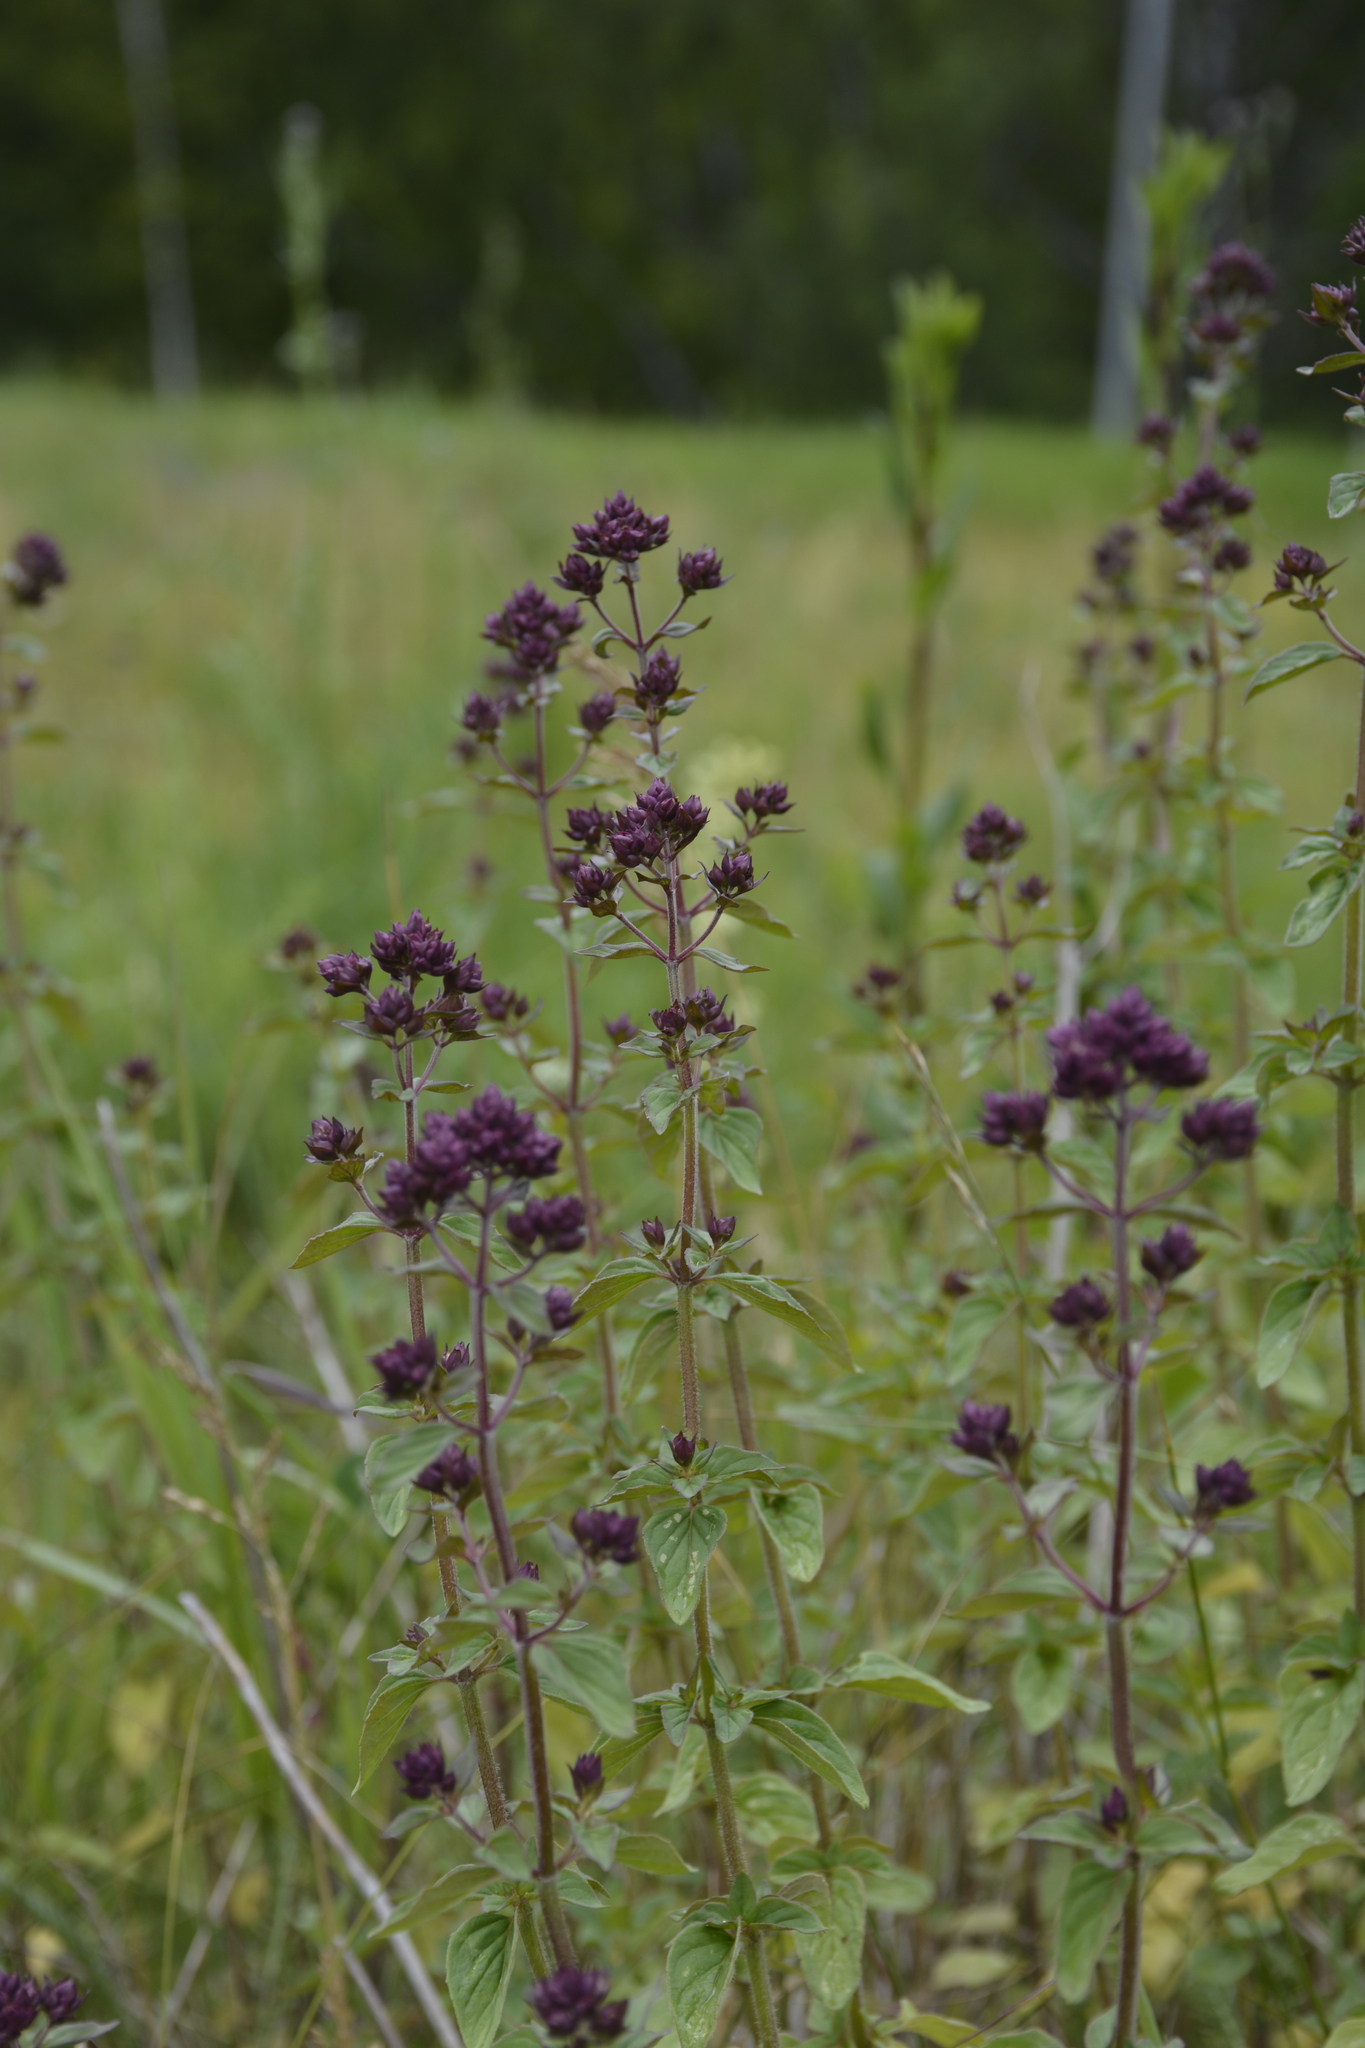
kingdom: Plantae
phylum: Tracheophyta
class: Magnoliopsida
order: Lamiales
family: Lamiaceae
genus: Origanum
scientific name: Origanum vulgare
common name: Wild marjoram
